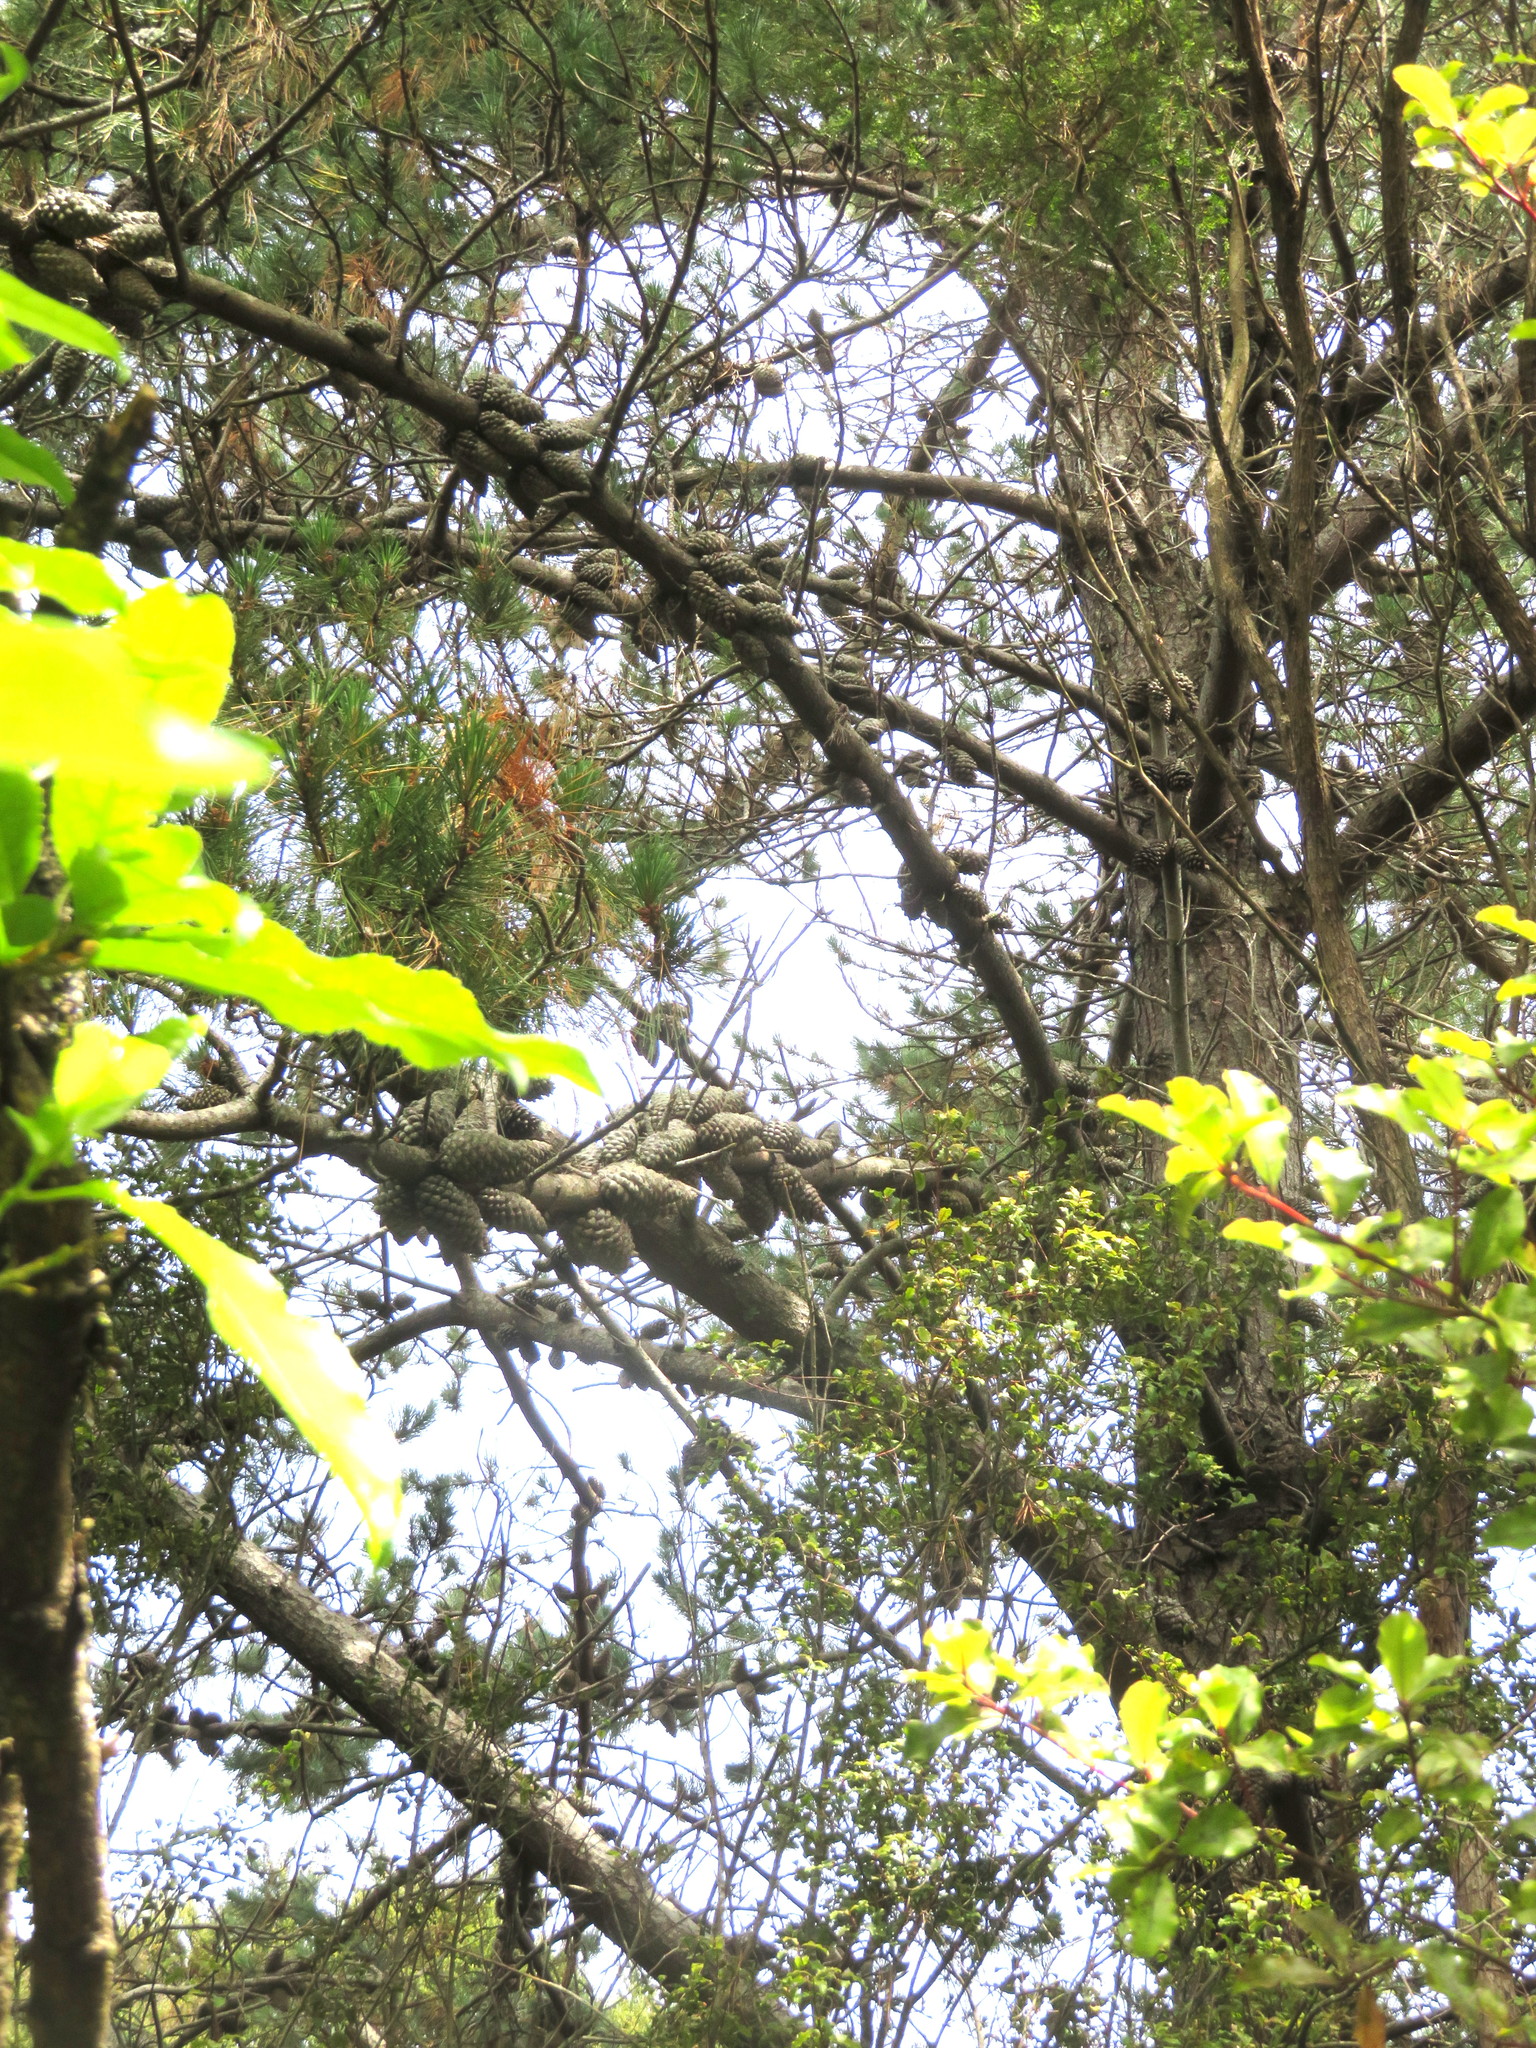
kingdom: Plantae
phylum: Tracheophyta
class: Pinopsida
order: Pinales
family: Pinaceae
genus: Pinus
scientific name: Pinus radiata
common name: Monterey pine
